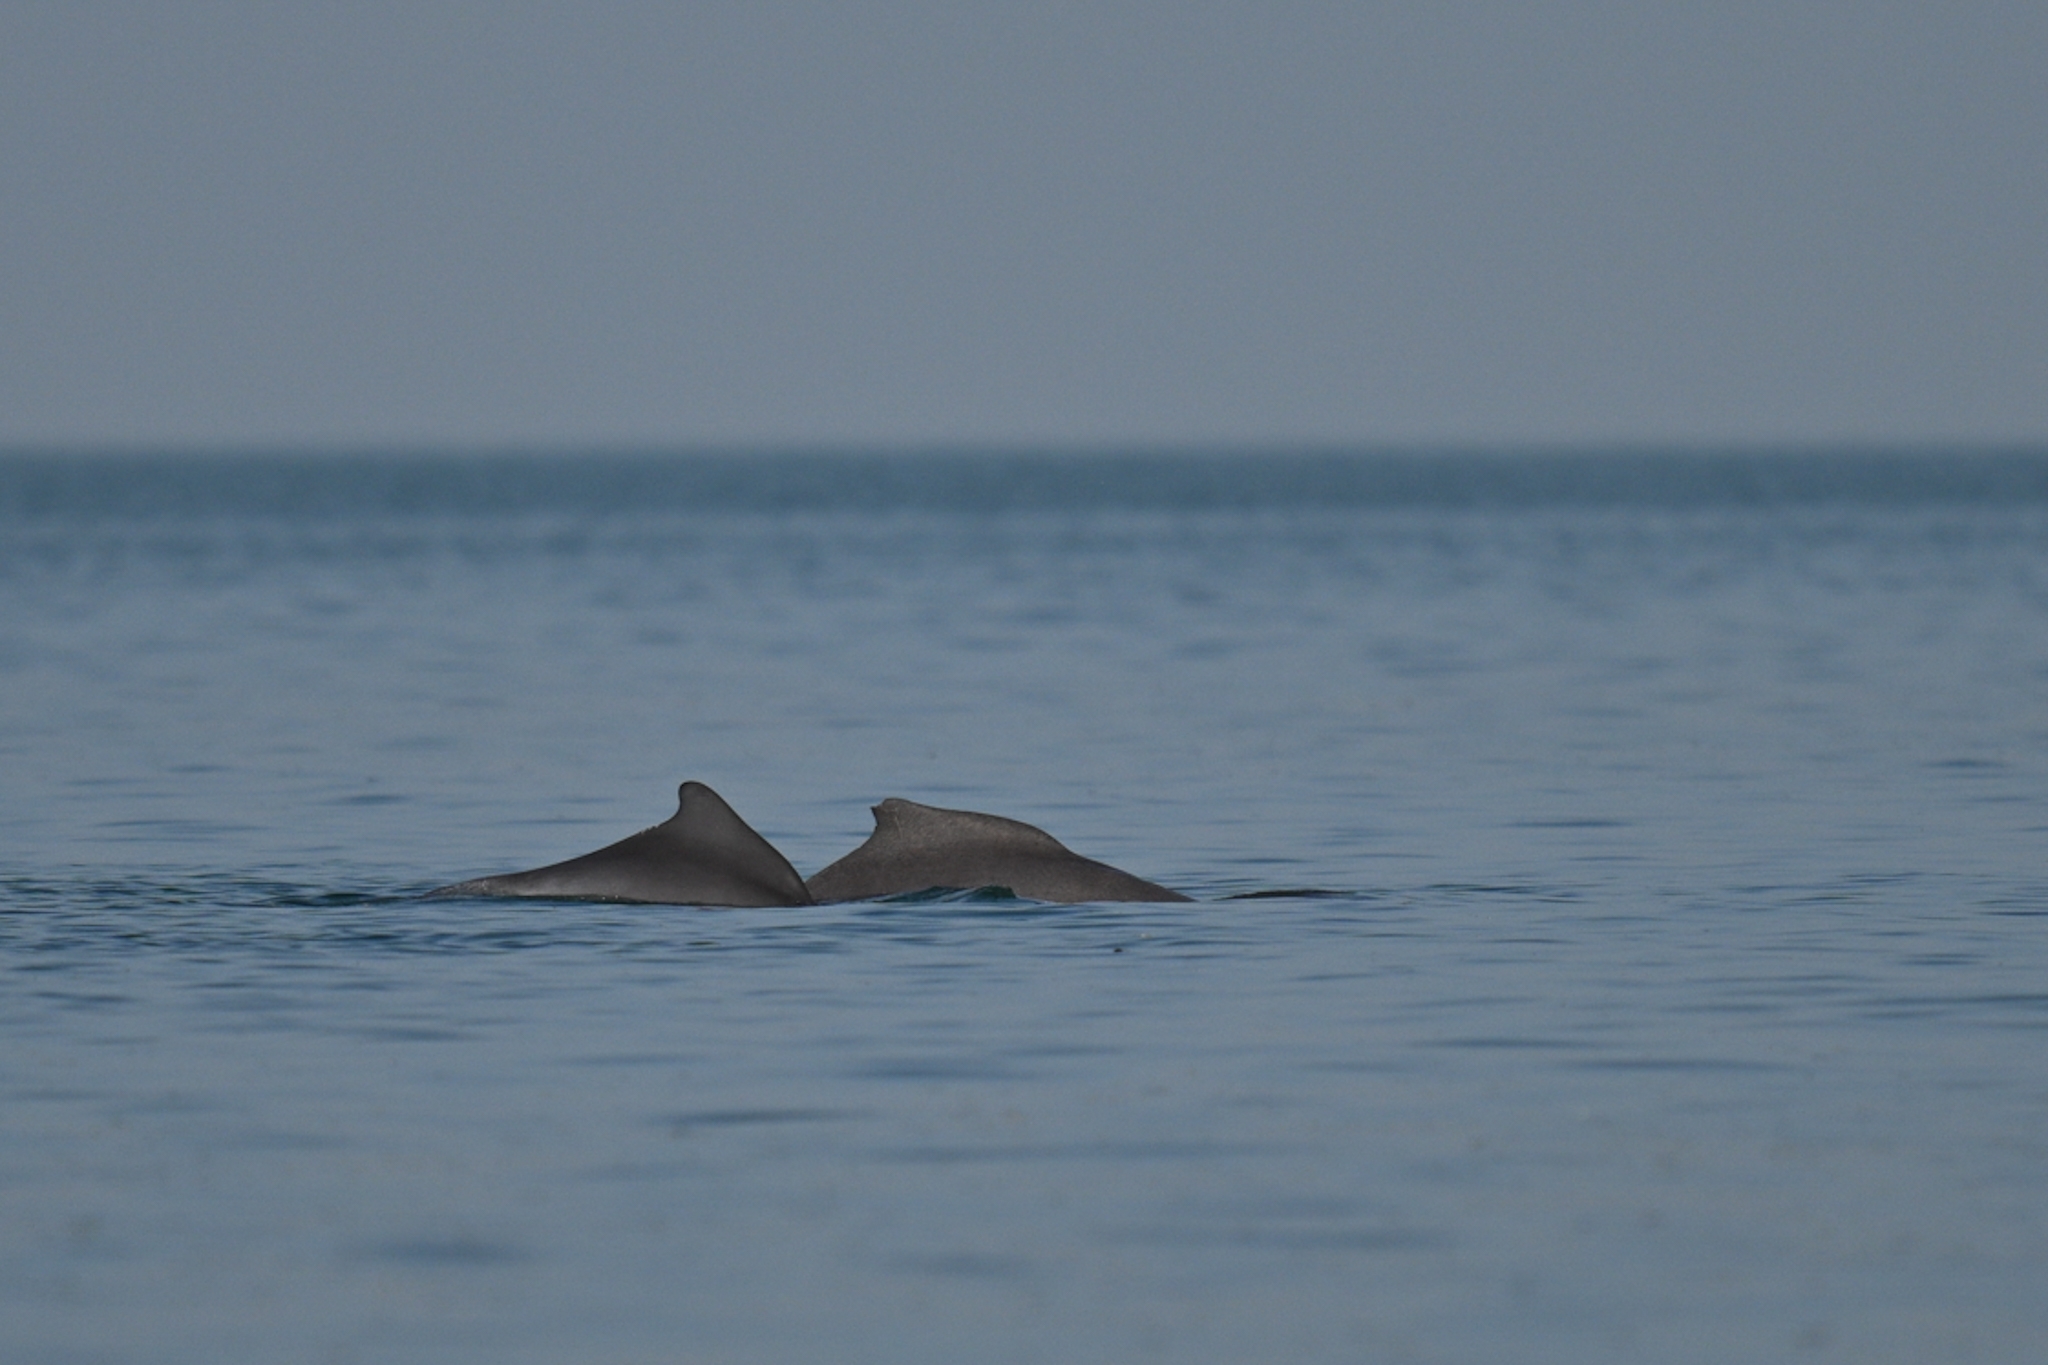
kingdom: Animalia
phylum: Chordata
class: Mammalia
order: Cetacea
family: Delphinidae
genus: Sousa
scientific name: Sousa teuszii
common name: Atlantic humpbacked dolphin
